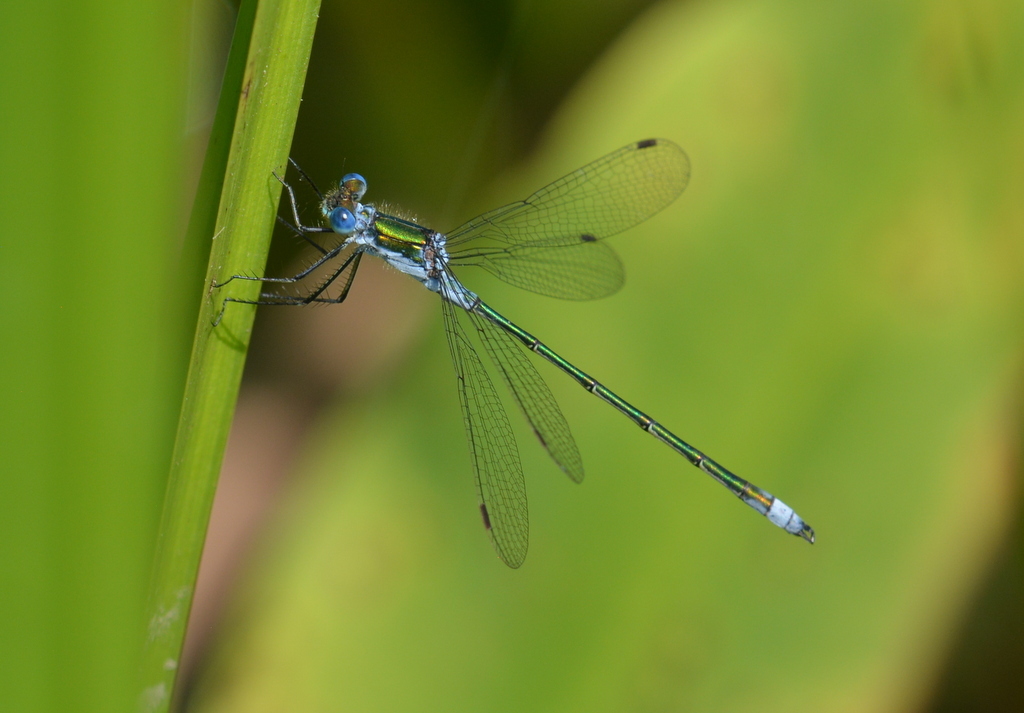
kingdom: Animalia
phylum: Arthropoda
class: Insecta
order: Odonata
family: Lestidae
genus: Lestes
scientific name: Lestes sponsa
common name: Common spreadwing
